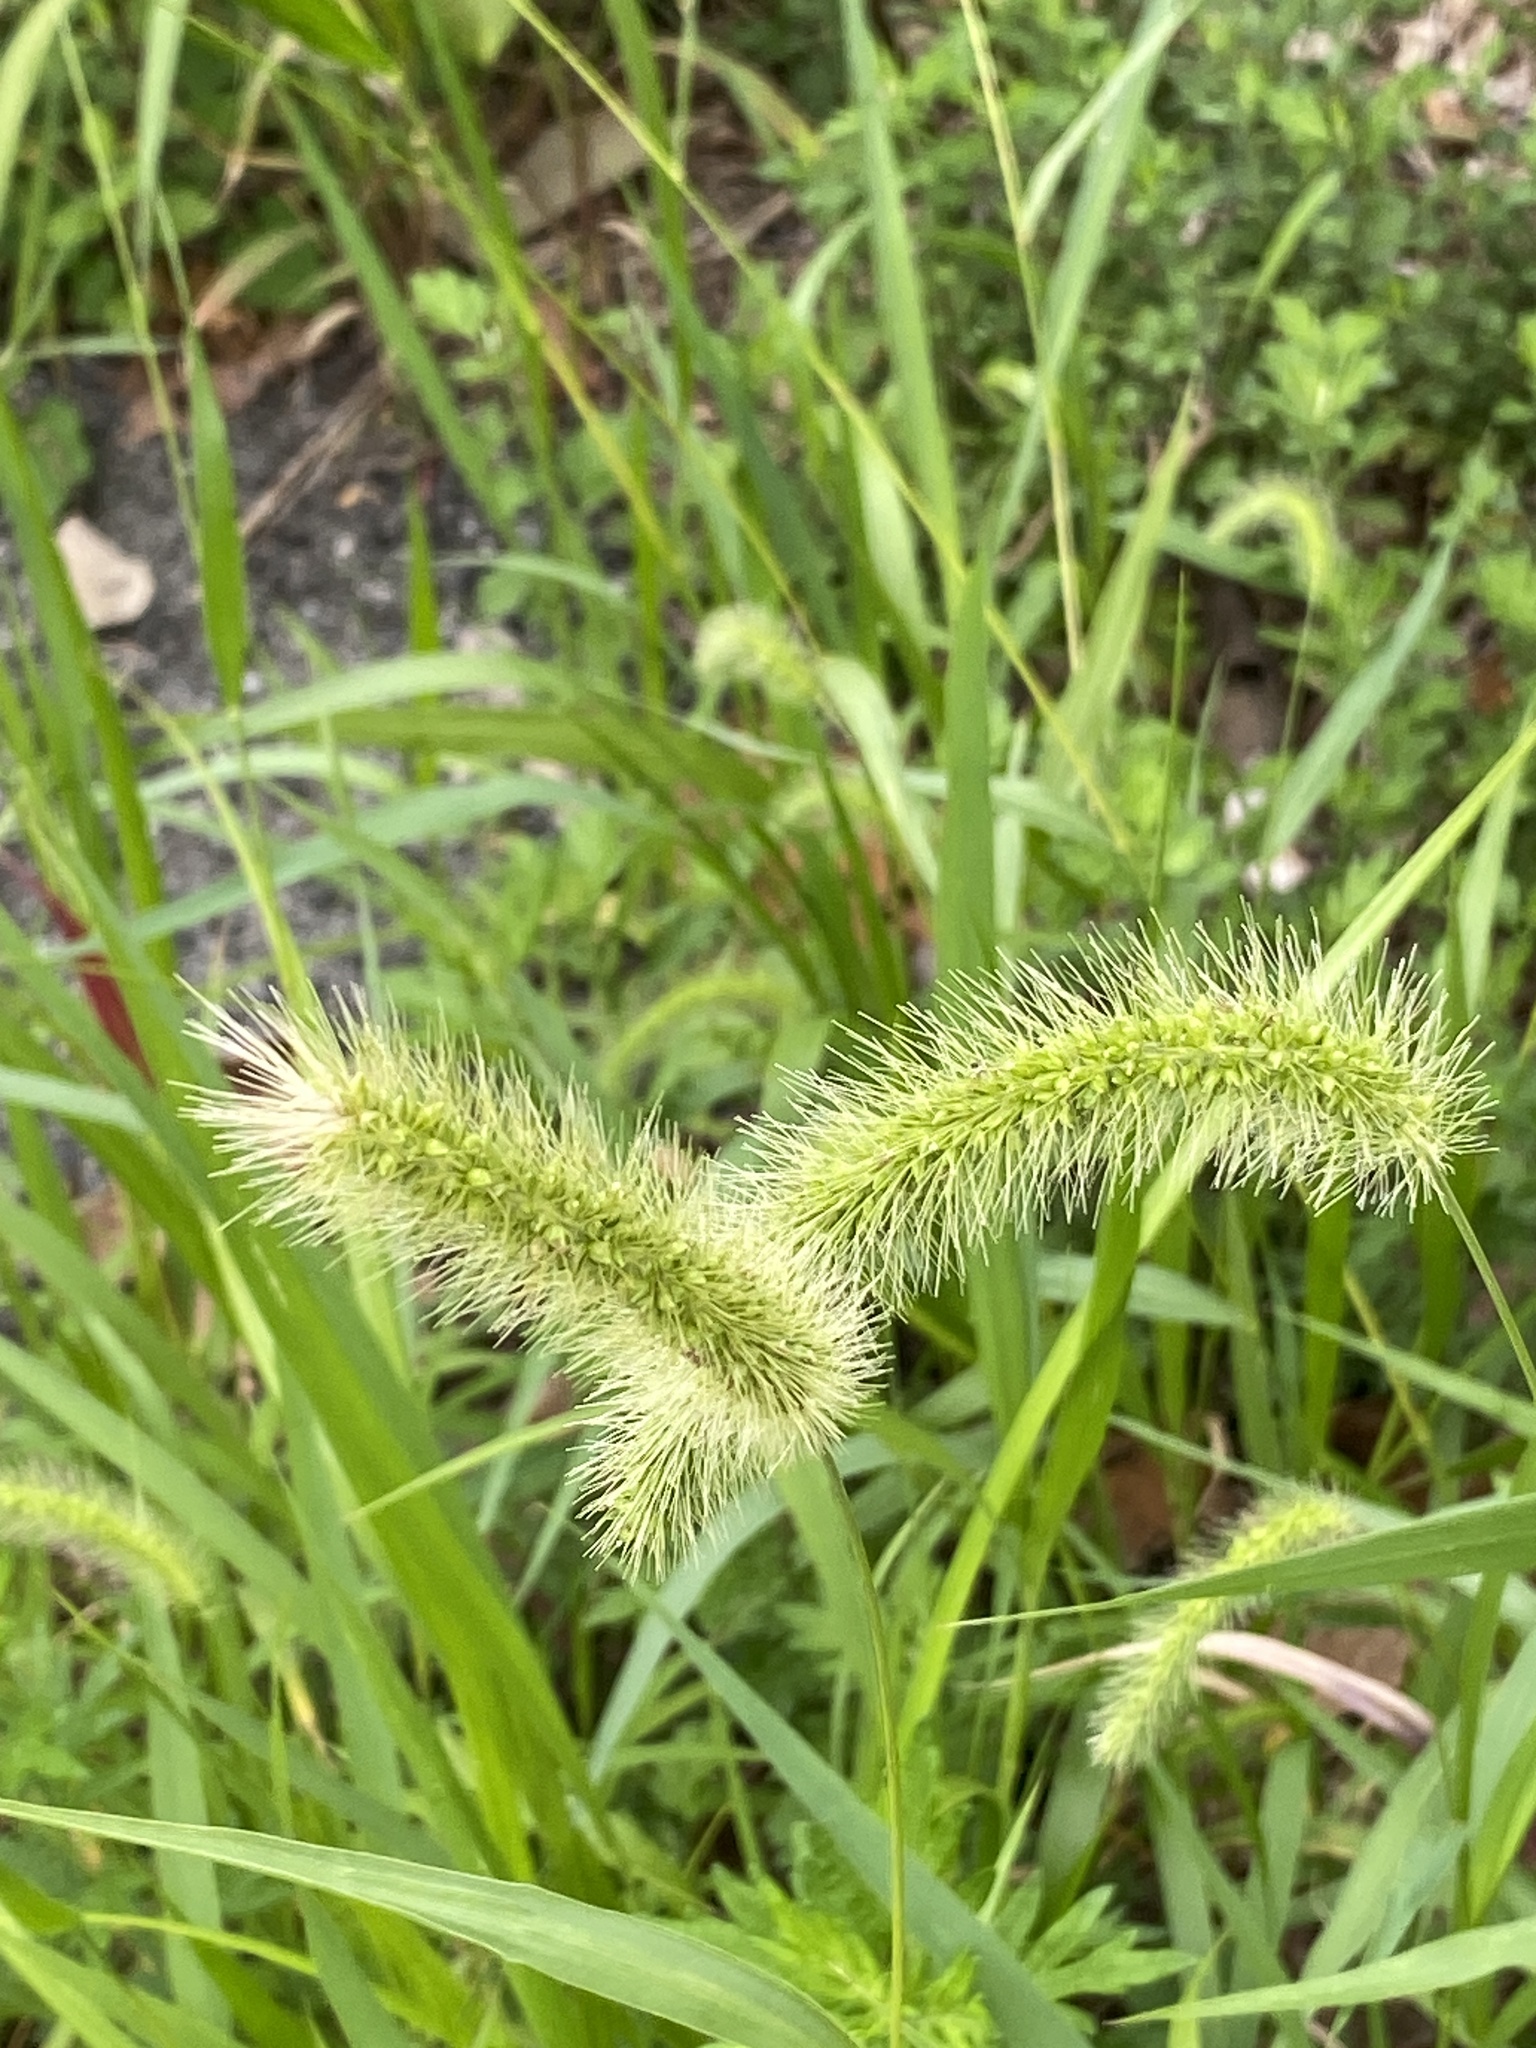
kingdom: Plantae
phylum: Tracheophyta
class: Liliopsida
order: Poales
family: Poaceae
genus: Setaria
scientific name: Setaria faberi
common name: Nodding bristle-grass
